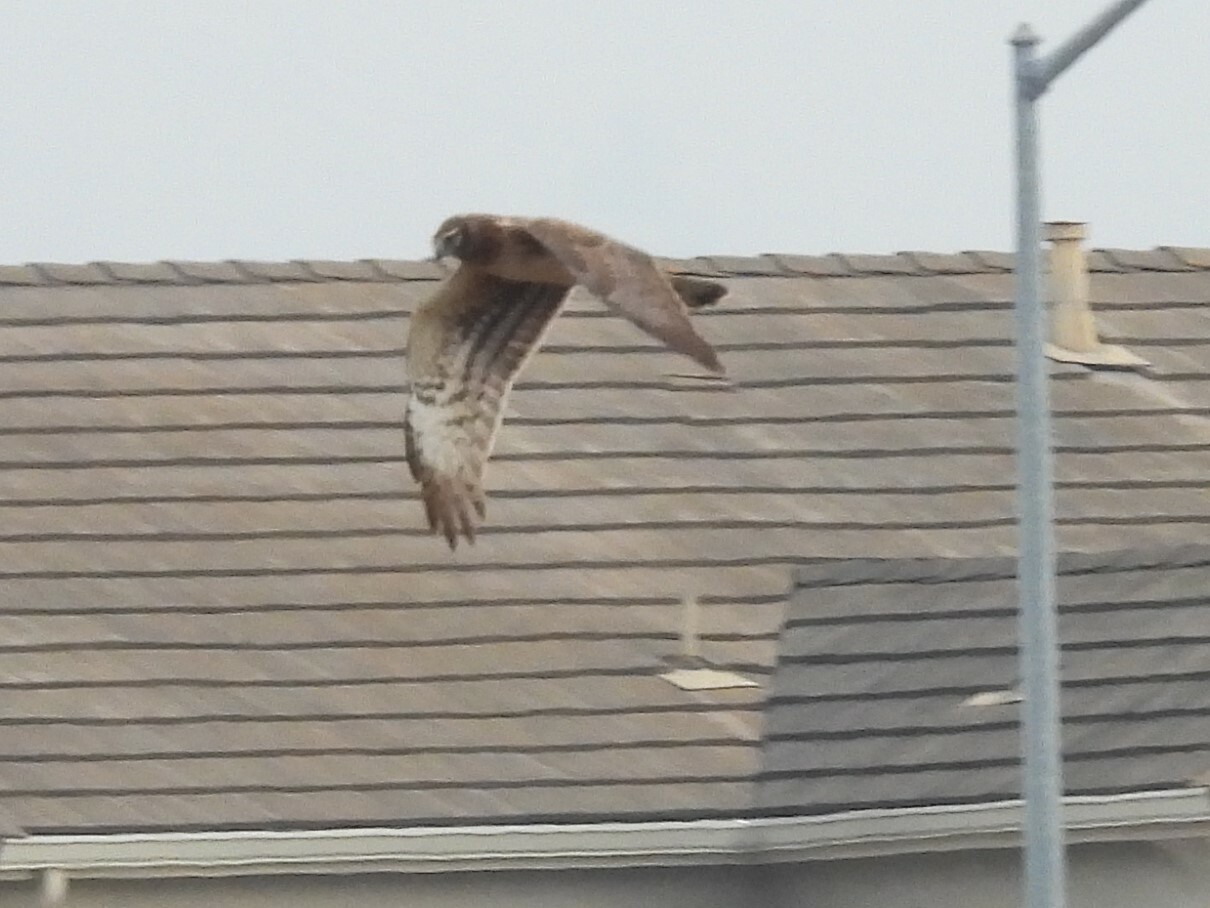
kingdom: Animalia
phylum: Chordata
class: Aves
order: Accipitriformes
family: Accipitridae
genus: Circus
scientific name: Circus cyaneus
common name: Hen harrier
